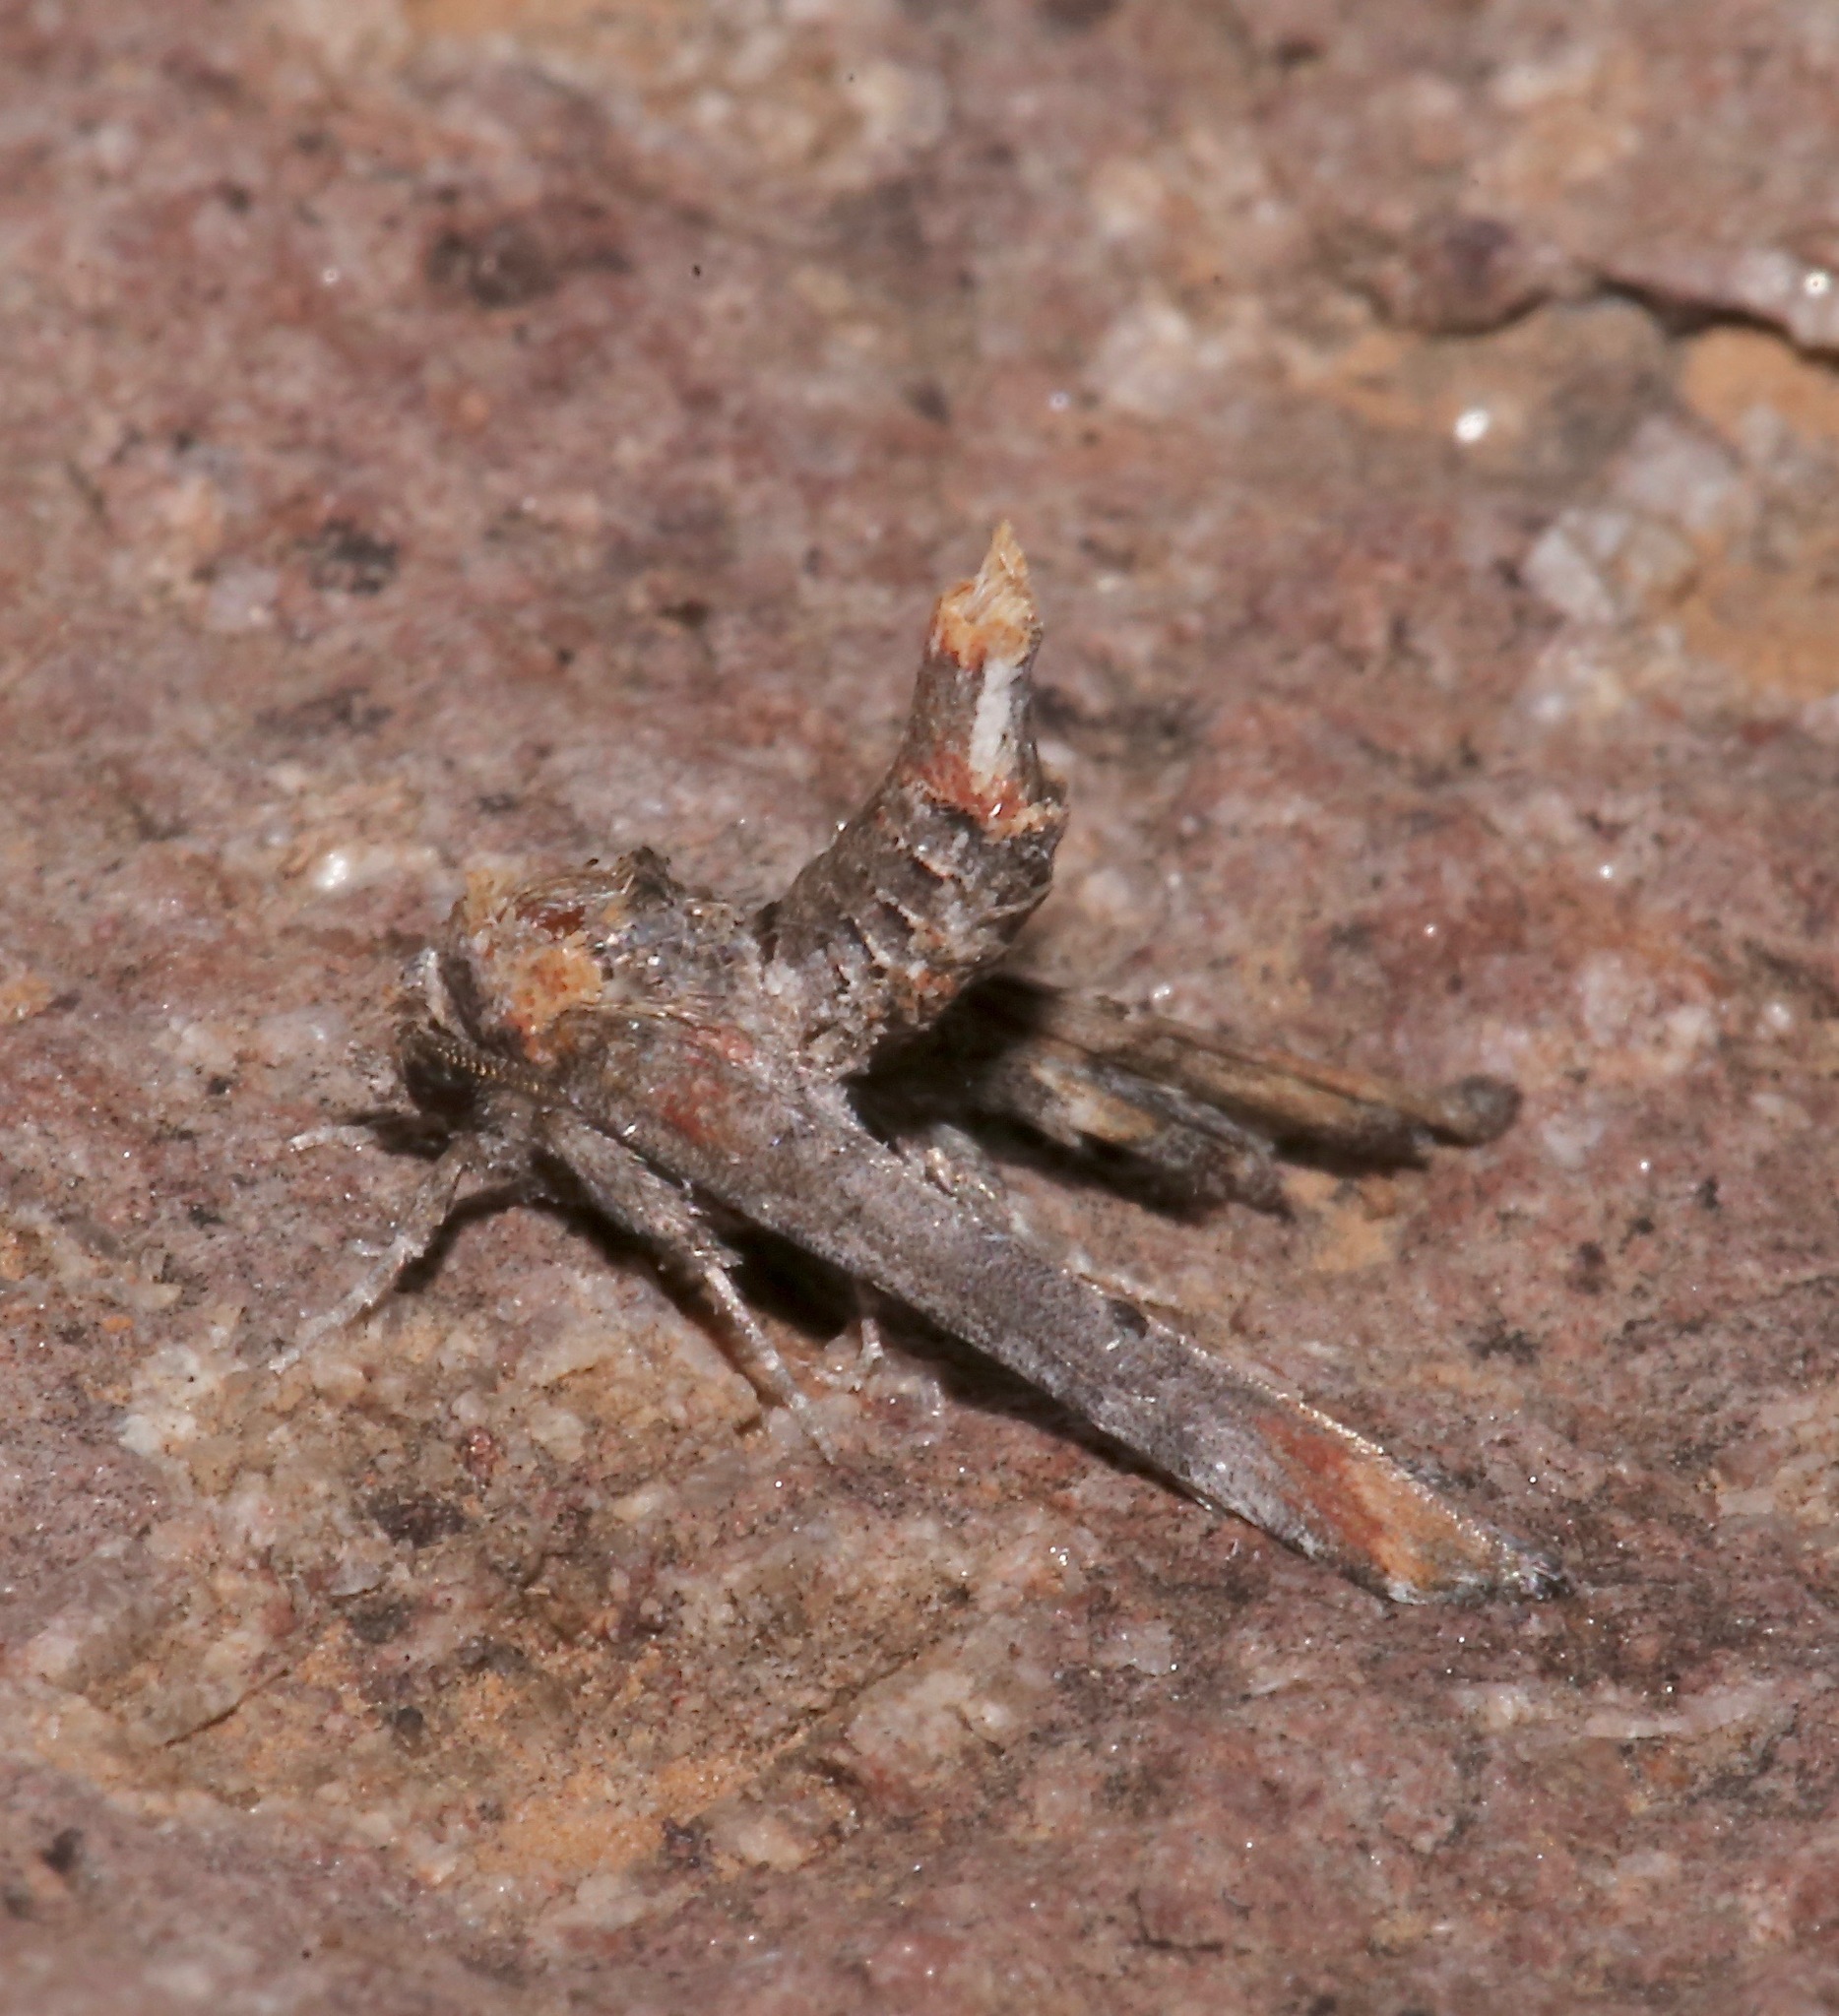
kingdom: Animalia
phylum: Arthropoda
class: Insecta
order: Lepidoptera
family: Euteliidae
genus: Marathyssa
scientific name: Marathyssa inficita
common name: Dark marathyssa moth
